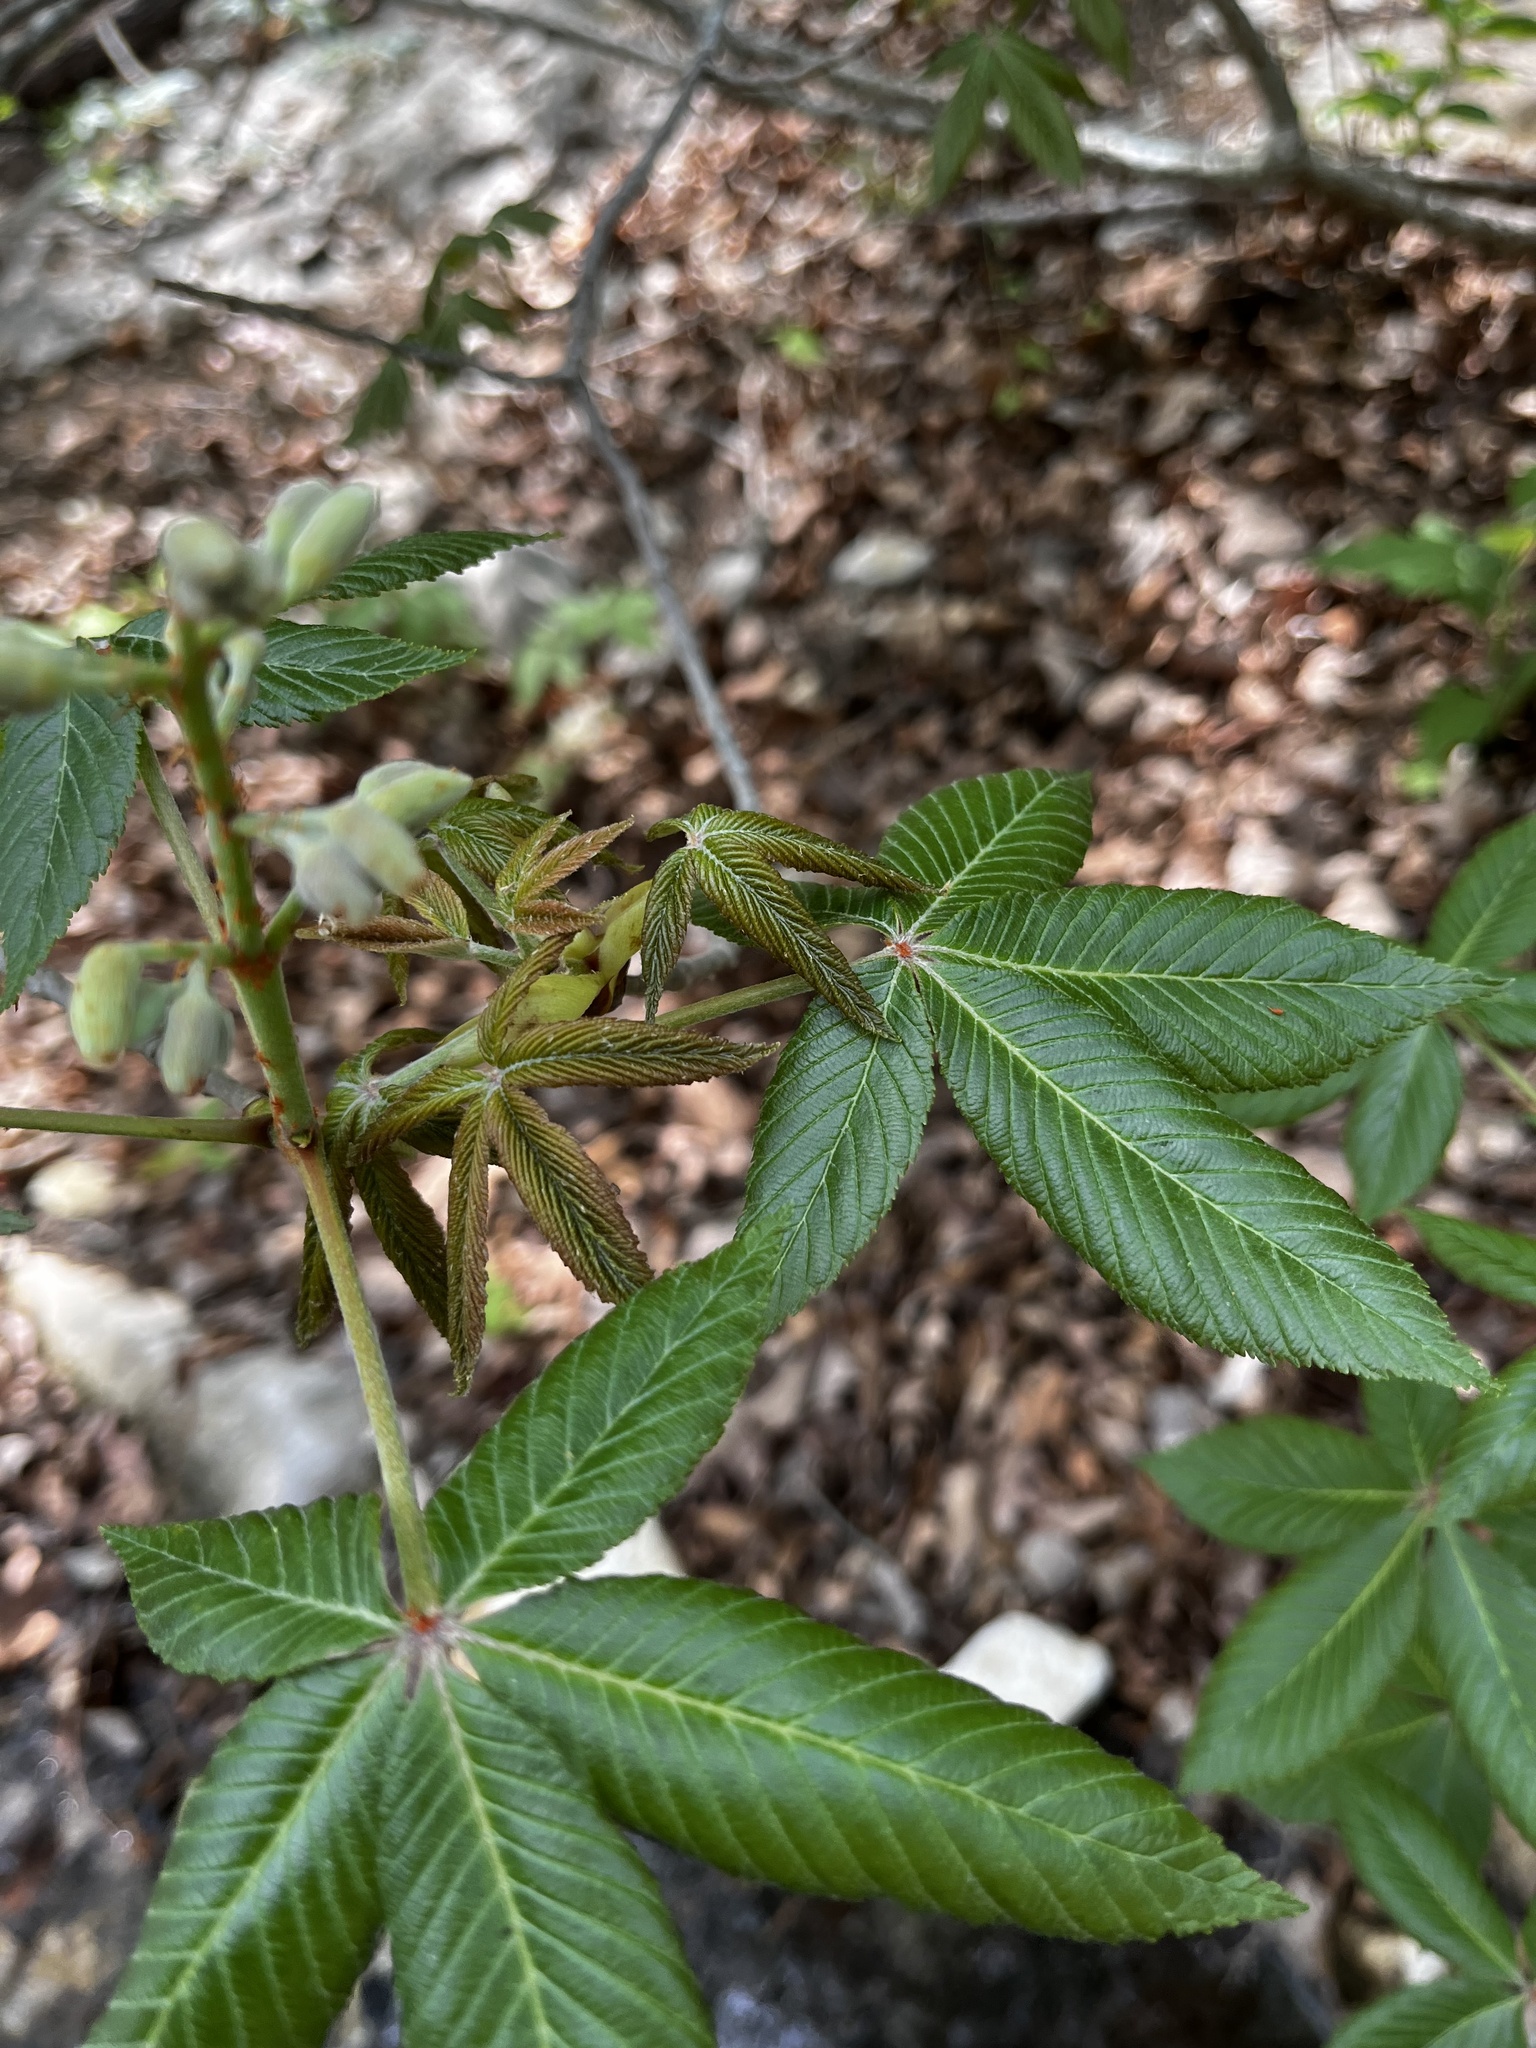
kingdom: Plantae
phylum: Tracheophyta
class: Magnoliopsida
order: Sapindales
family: Sapindaceae
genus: Aesculus
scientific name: Aesculus pavia
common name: Red buckeye
